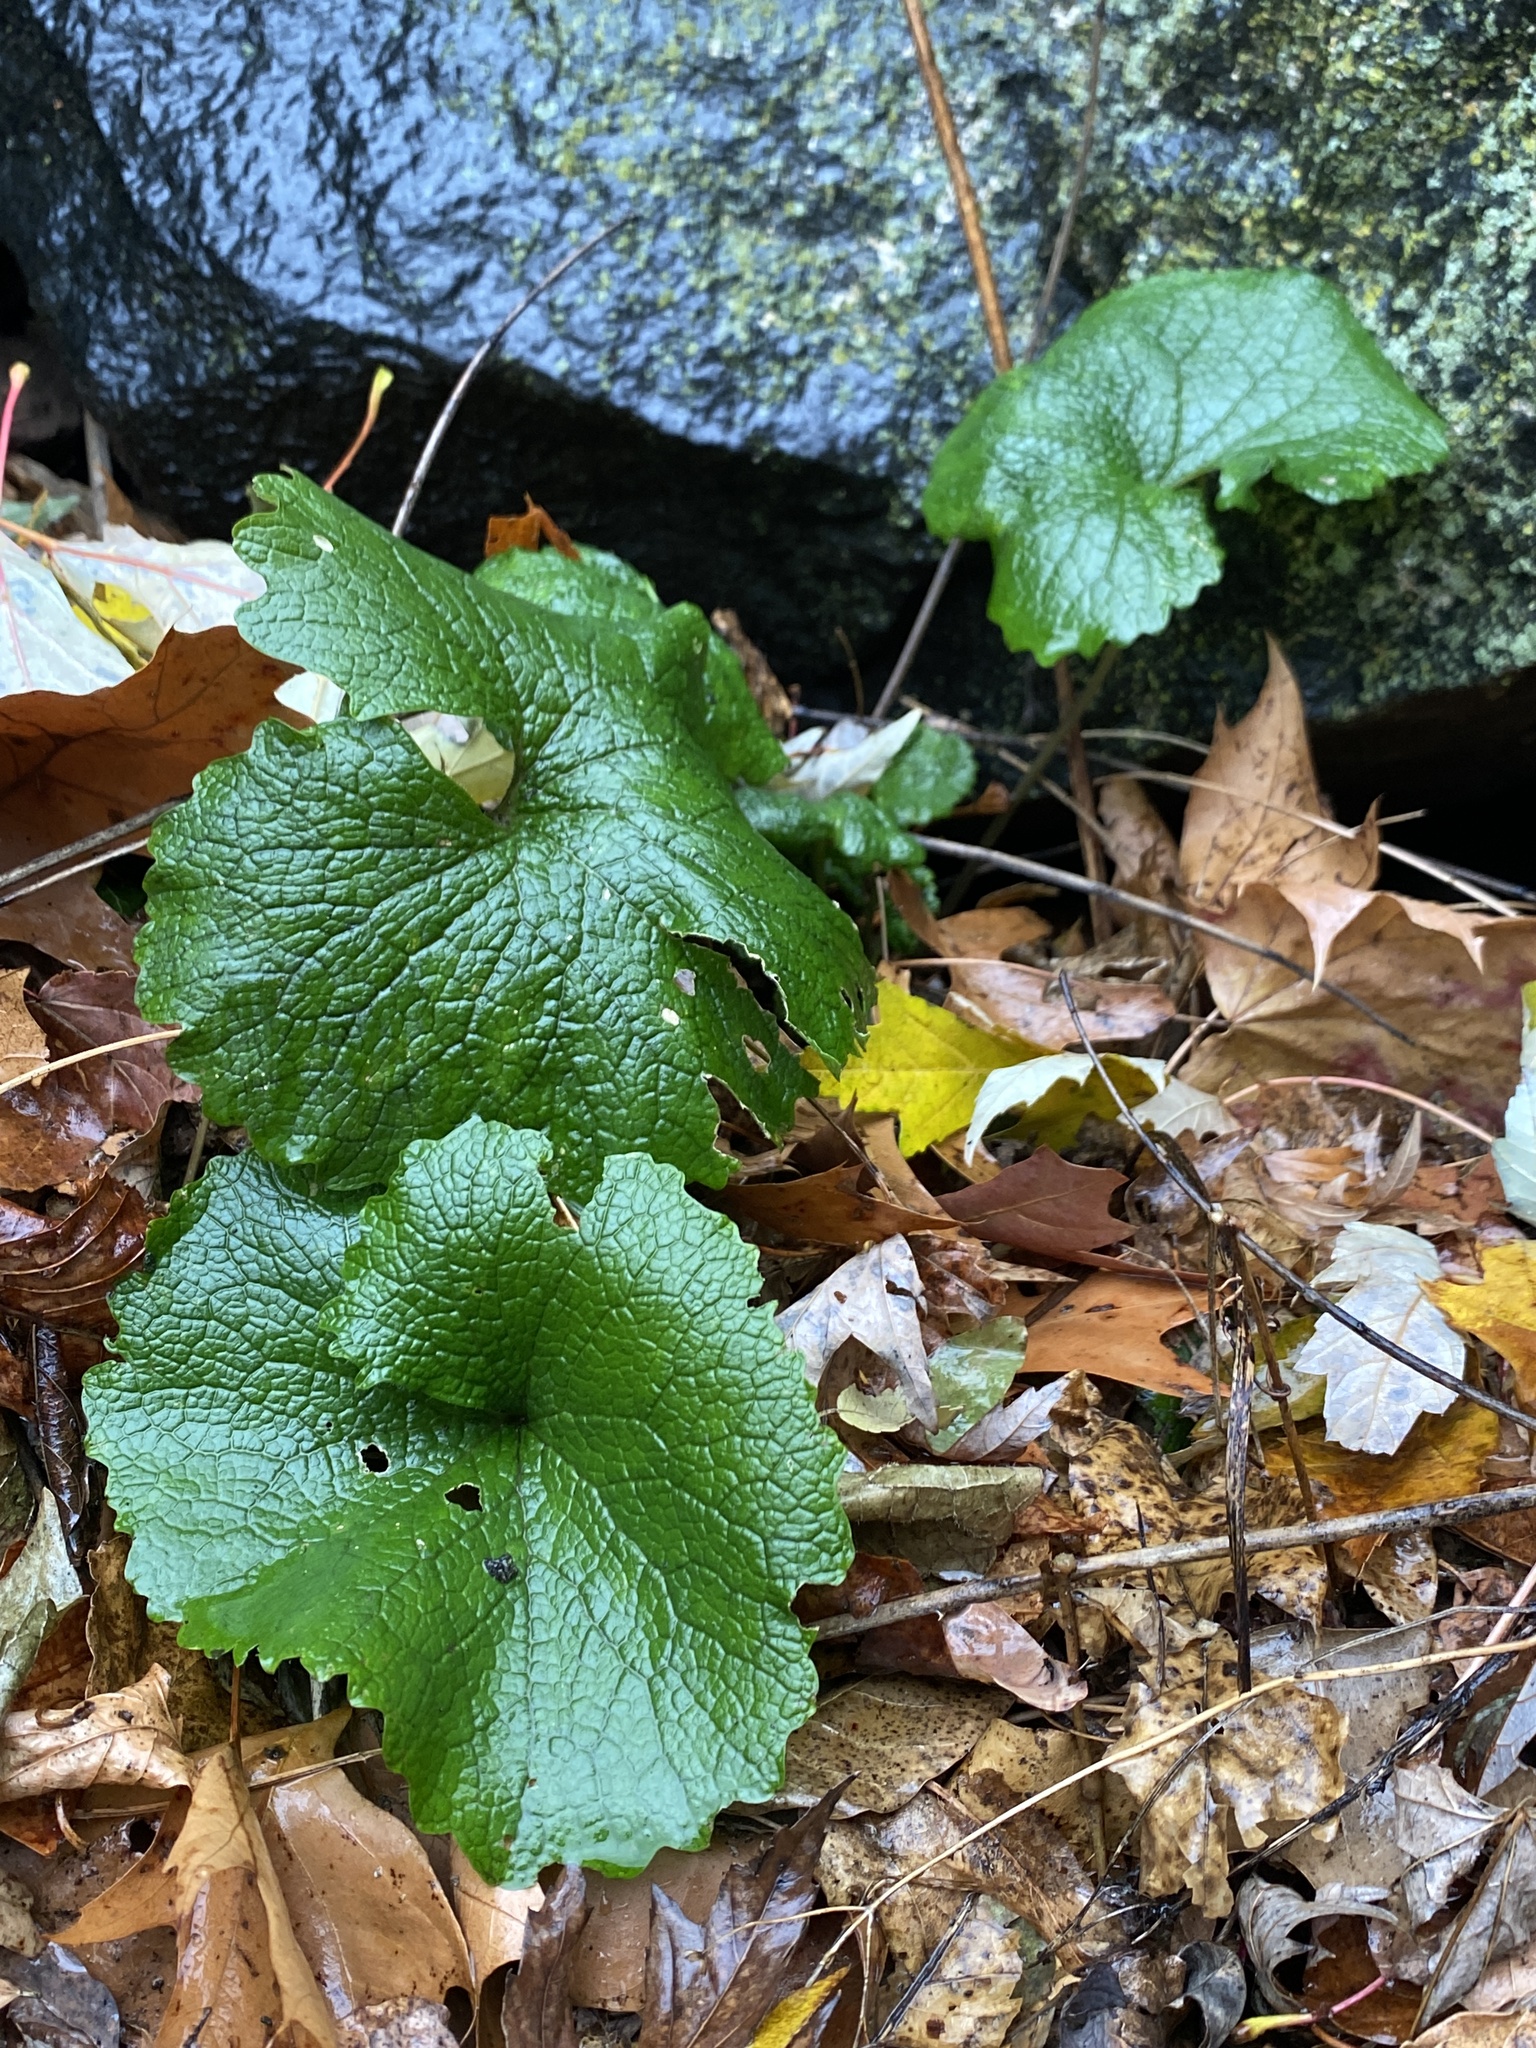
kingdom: Plantae
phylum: Tracheophyta
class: Magnoliopsida
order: Brassicales
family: Brassicaceae
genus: Alliaria
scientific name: Alliaria petiolata
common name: Garlic mustard
